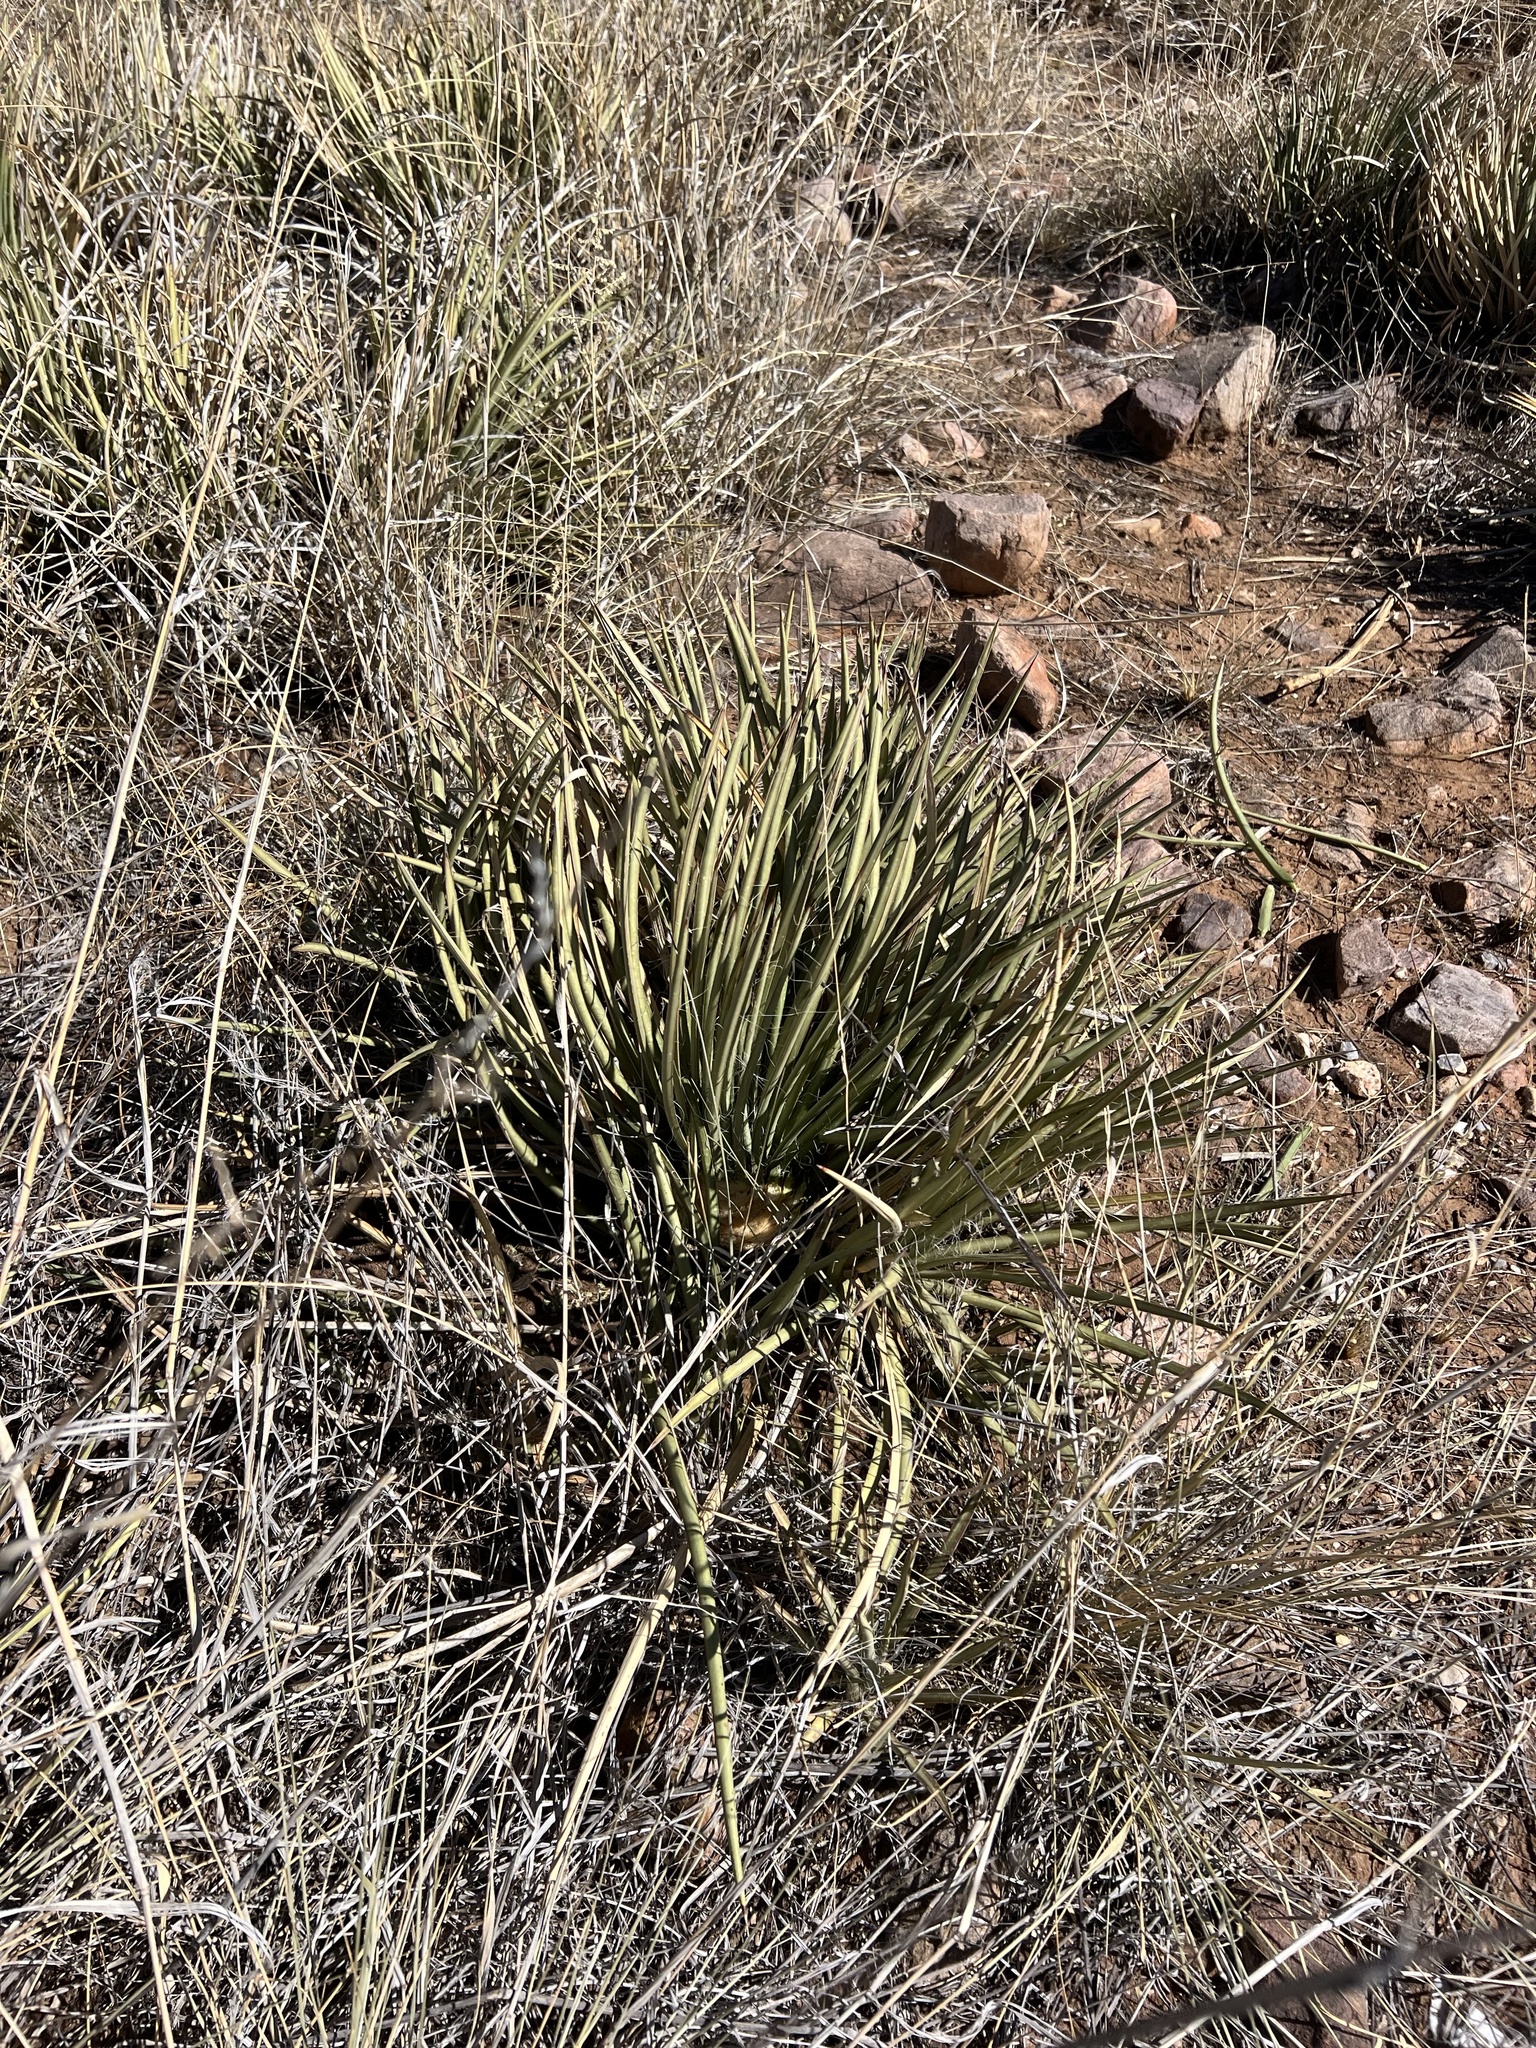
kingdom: Plantae
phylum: Tracheophyta
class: Liliopsida
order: Asparagales
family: Asparagaceae
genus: Agave
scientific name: Agave schottii
